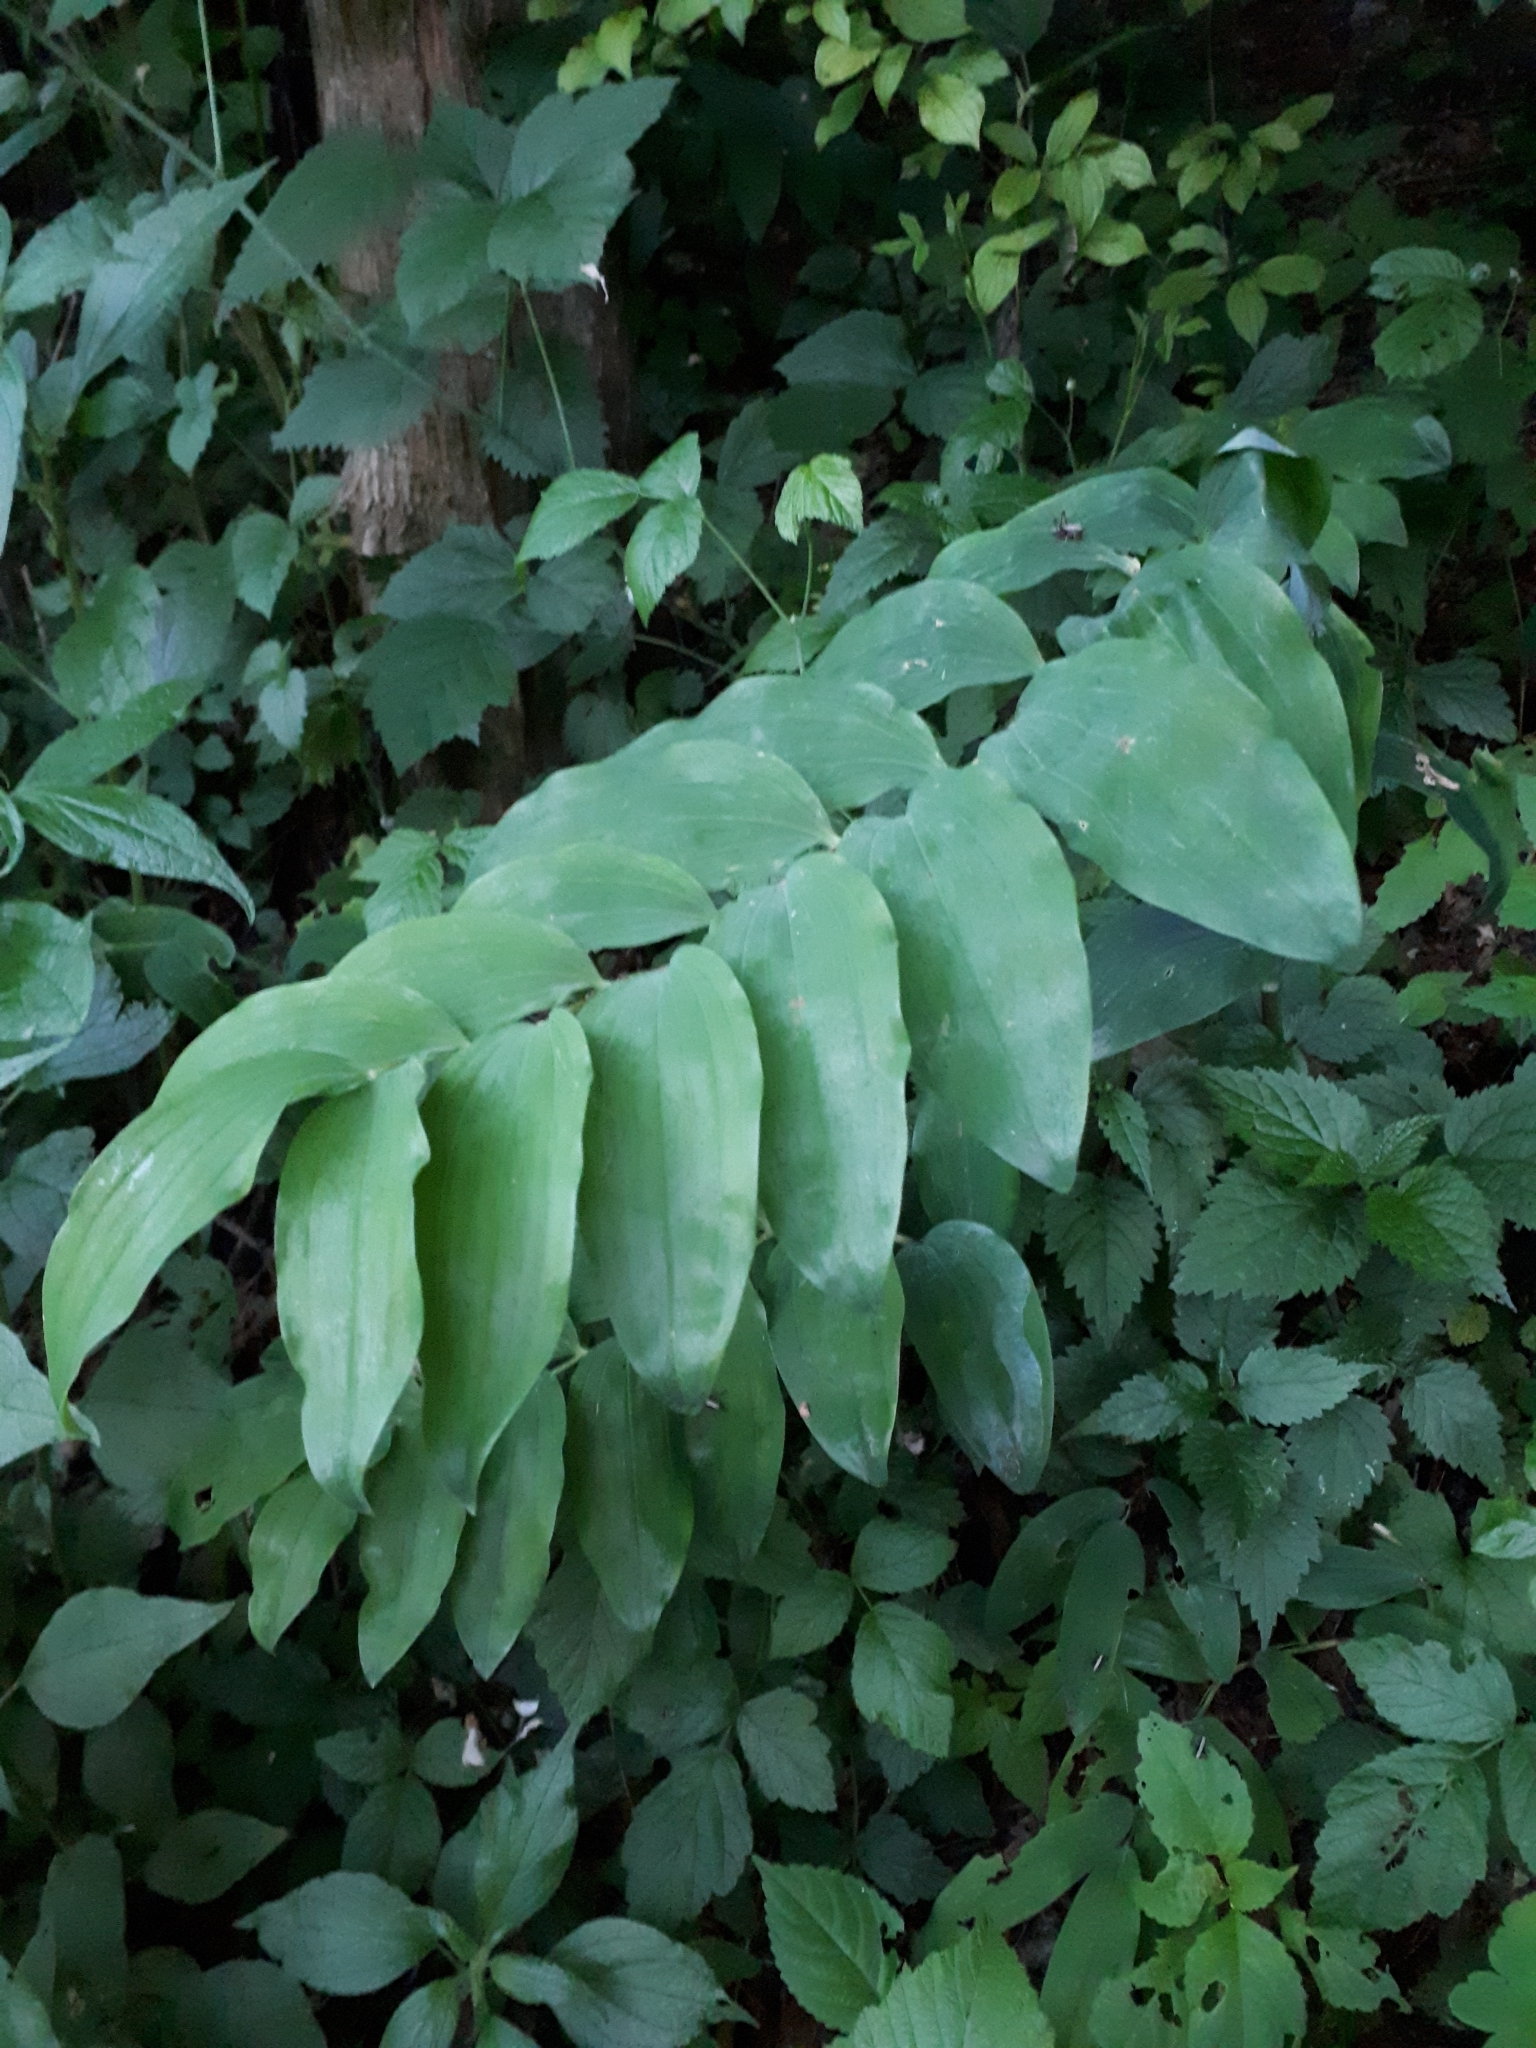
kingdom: Plantae
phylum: Tracheophyta
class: Liliopsida
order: Asparagales
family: Asparagaceae
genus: Polygonatum
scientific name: Polygonatum multiflorum
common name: Solomon's-seal
